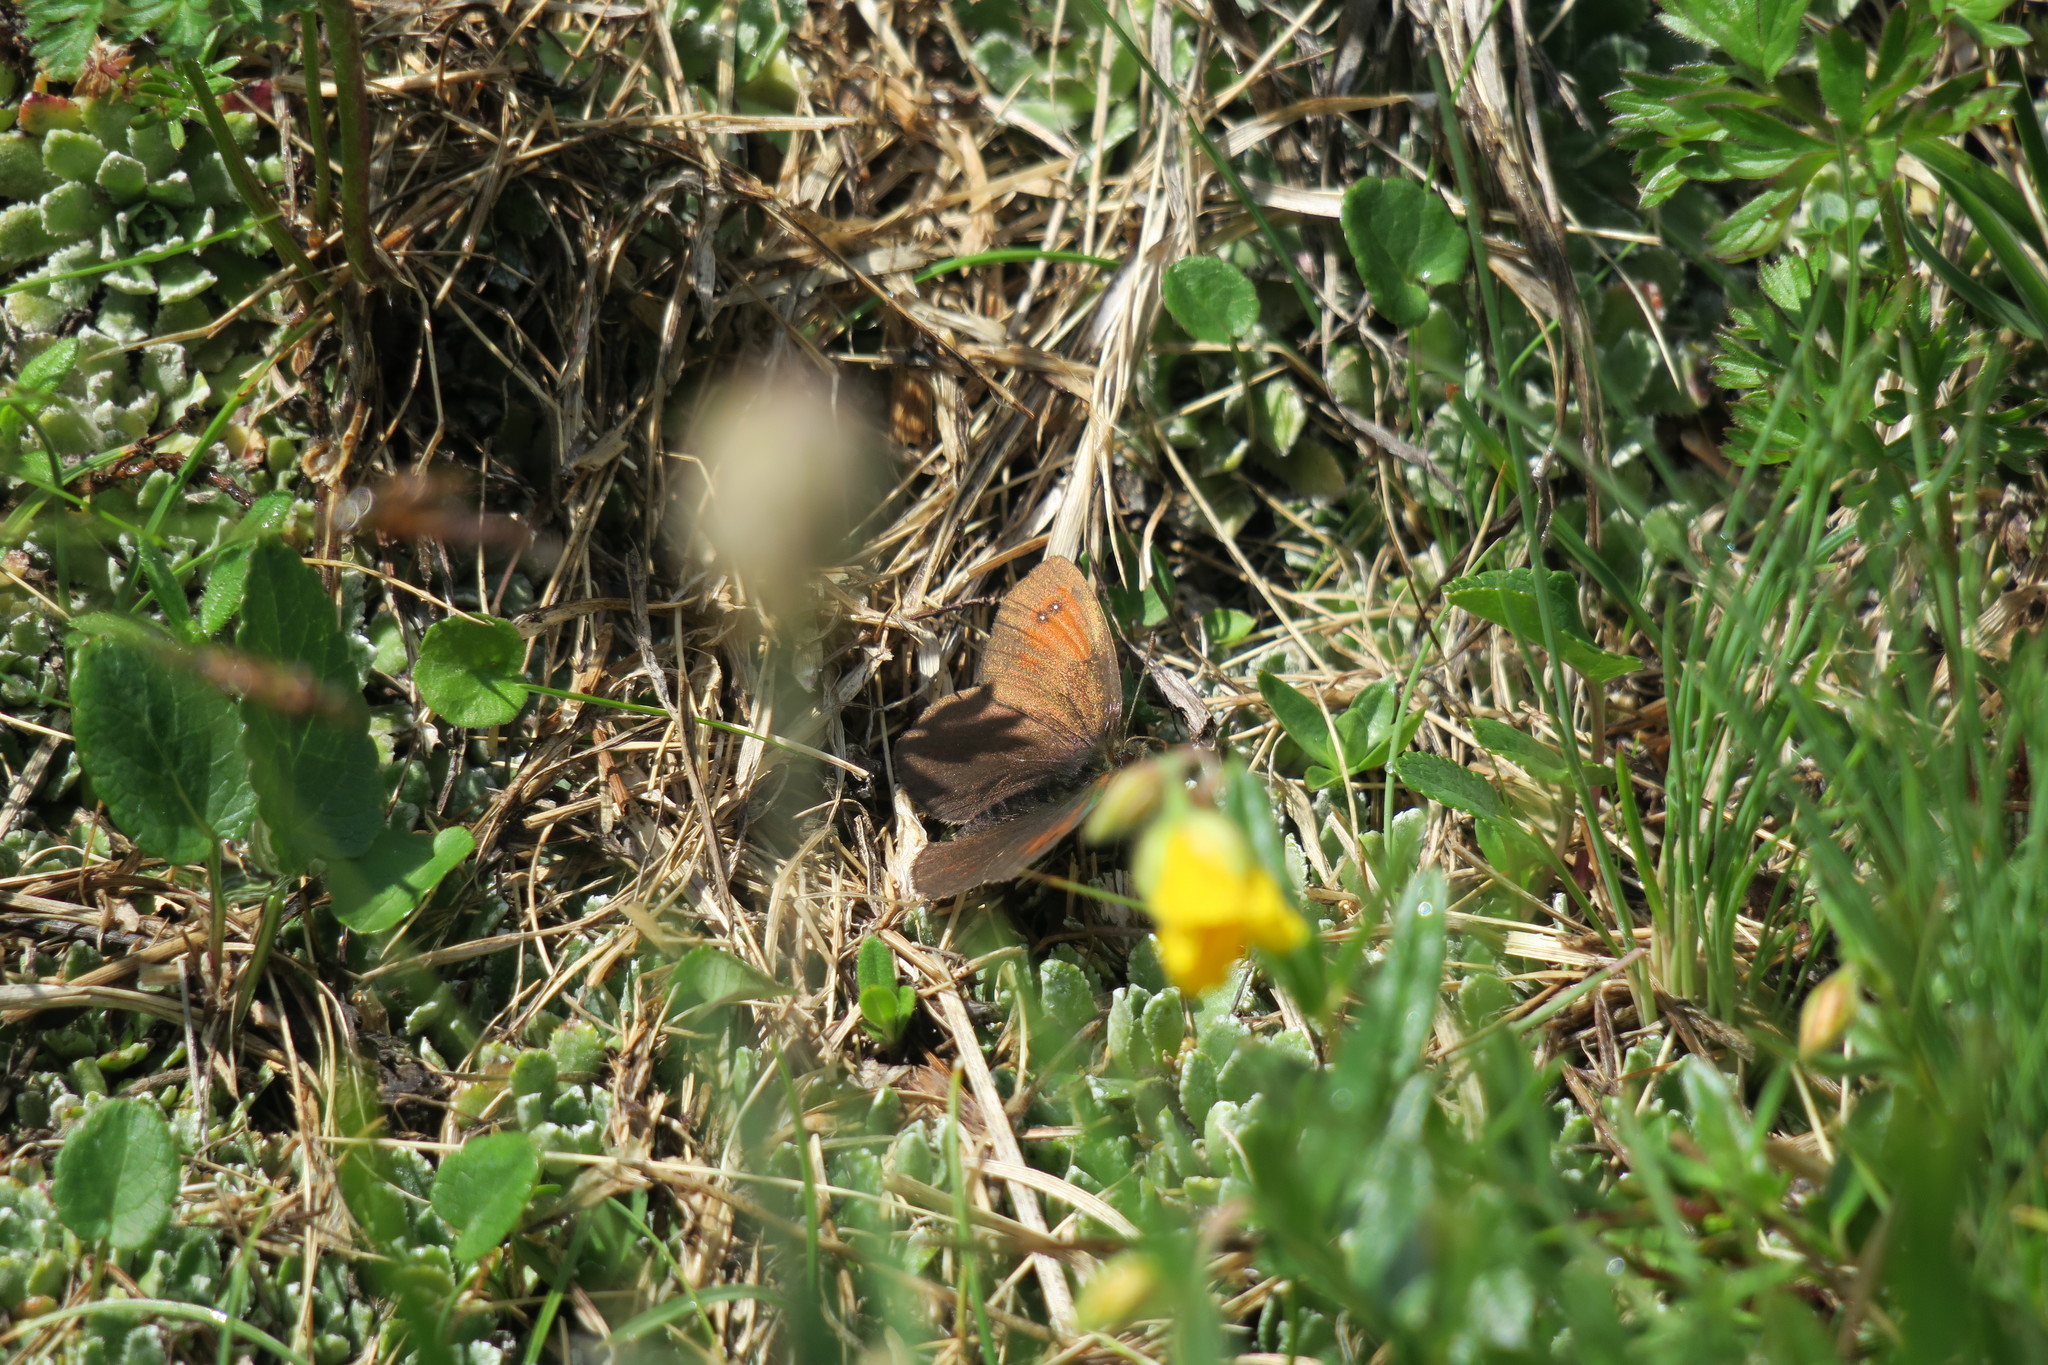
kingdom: Animalia
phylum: Arthropoda
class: Insecta
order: Lepidoptera
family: Nymphalidae
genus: Erebia
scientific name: Erebia nivalis
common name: De lesse’s brassy ringlet
